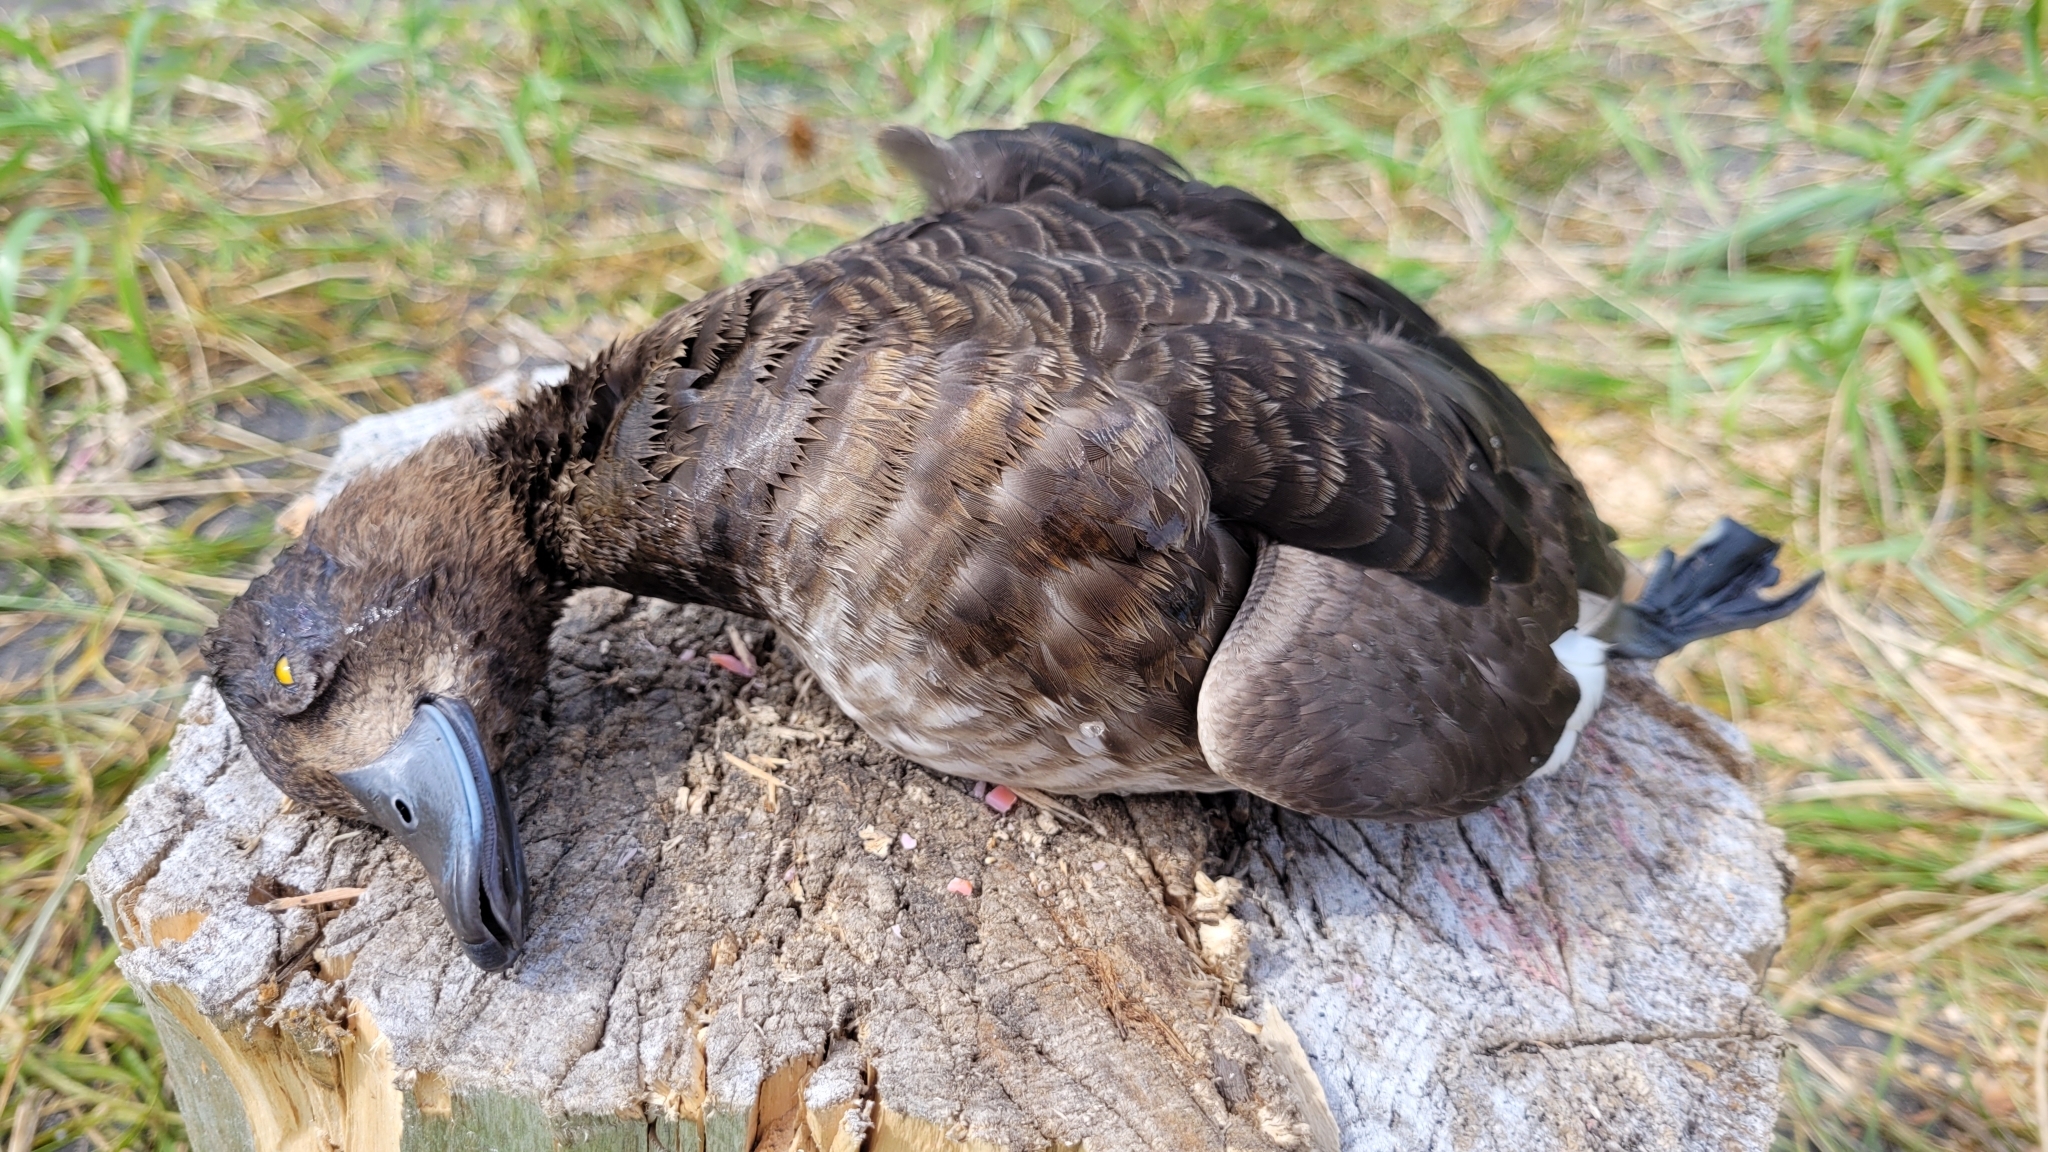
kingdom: Animalia
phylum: Chordata
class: Aves
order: Anseriformes
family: Anatidae
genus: Aythya
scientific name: Aythya fuligula
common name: Tufted duck
